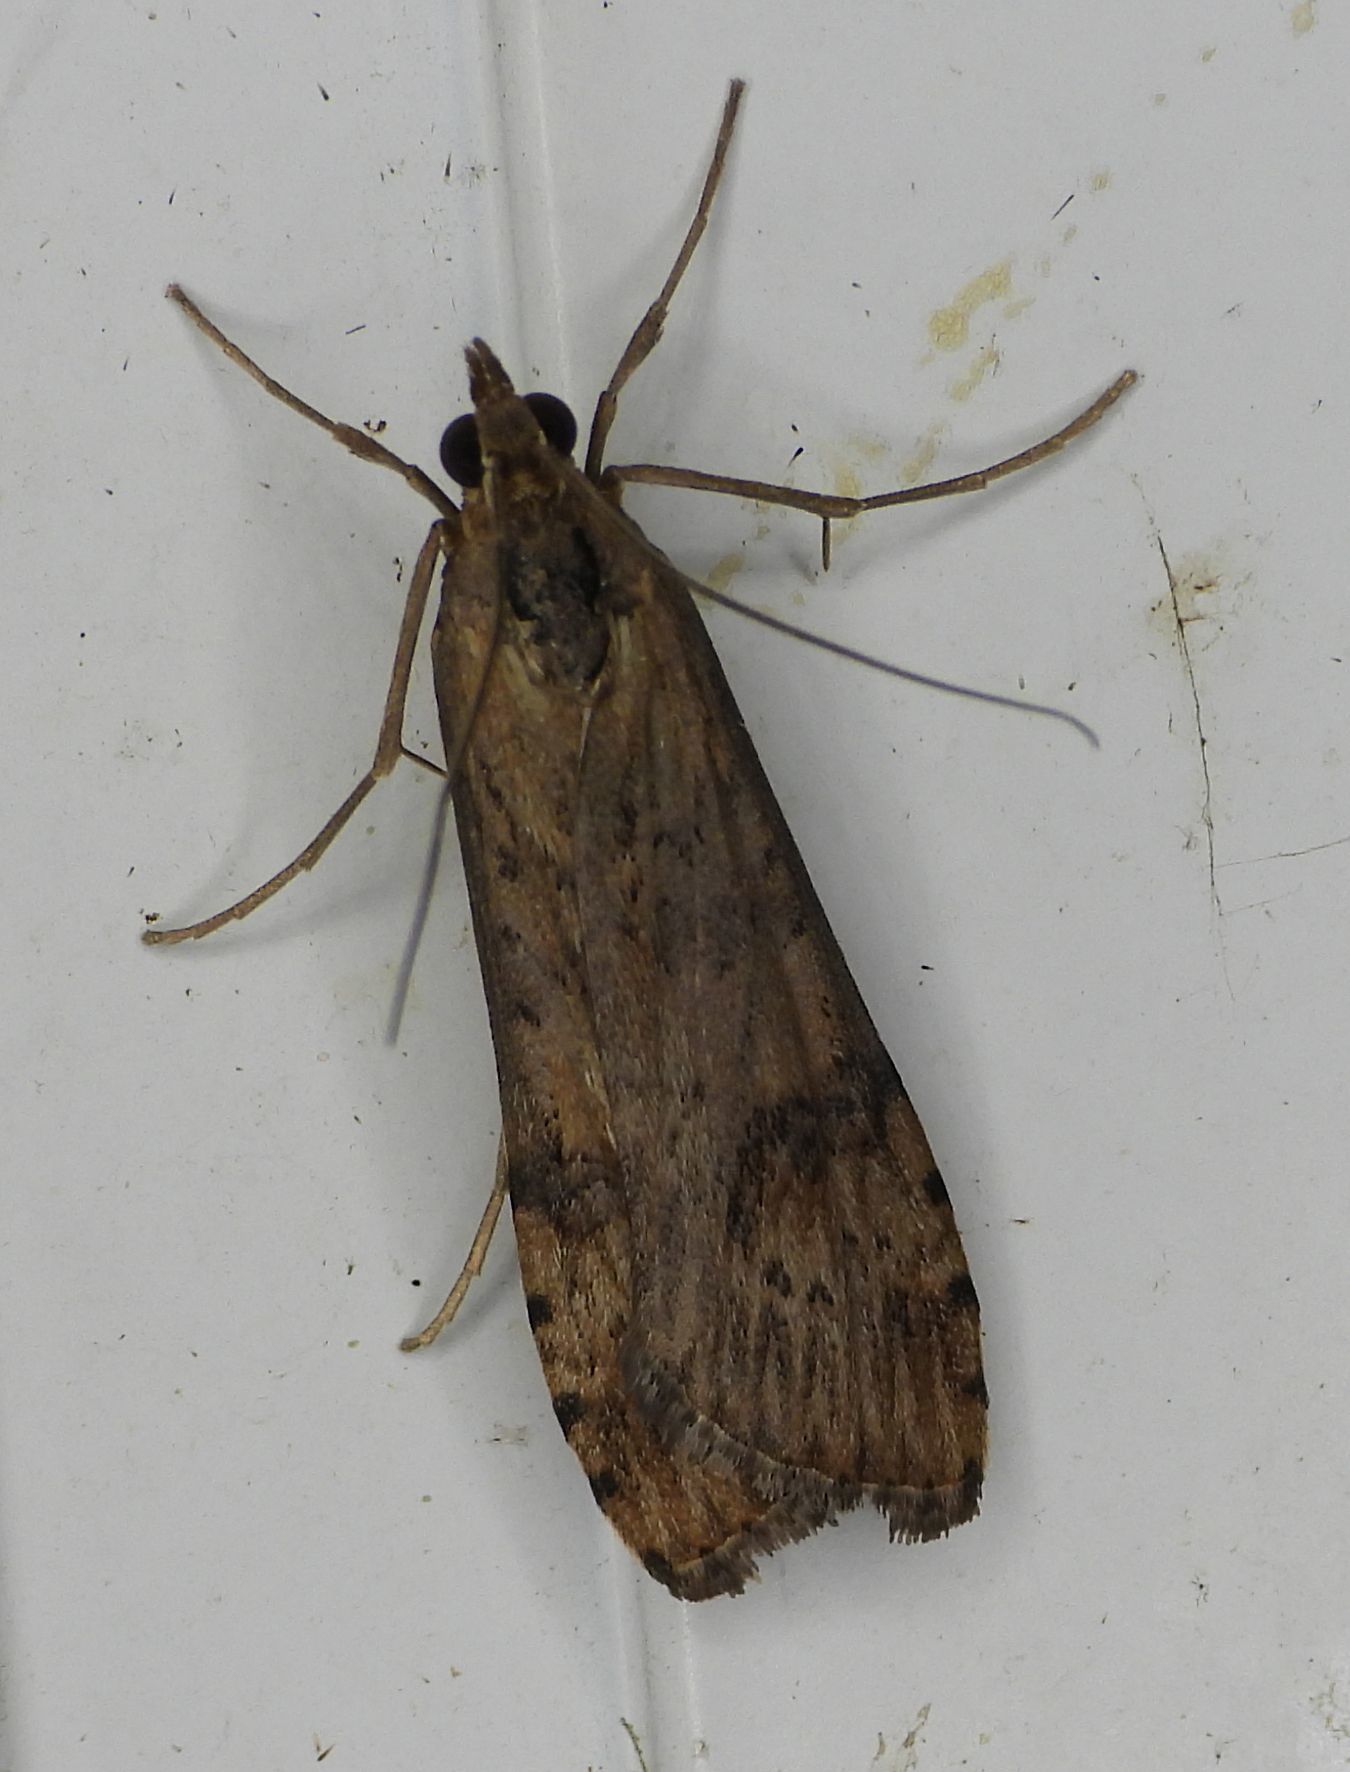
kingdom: Animalia
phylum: Arthropoda
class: Insecta
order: Lepidoptera
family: Crambidae
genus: Nomophila
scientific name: Nomophila nearctica
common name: American rush veneer
